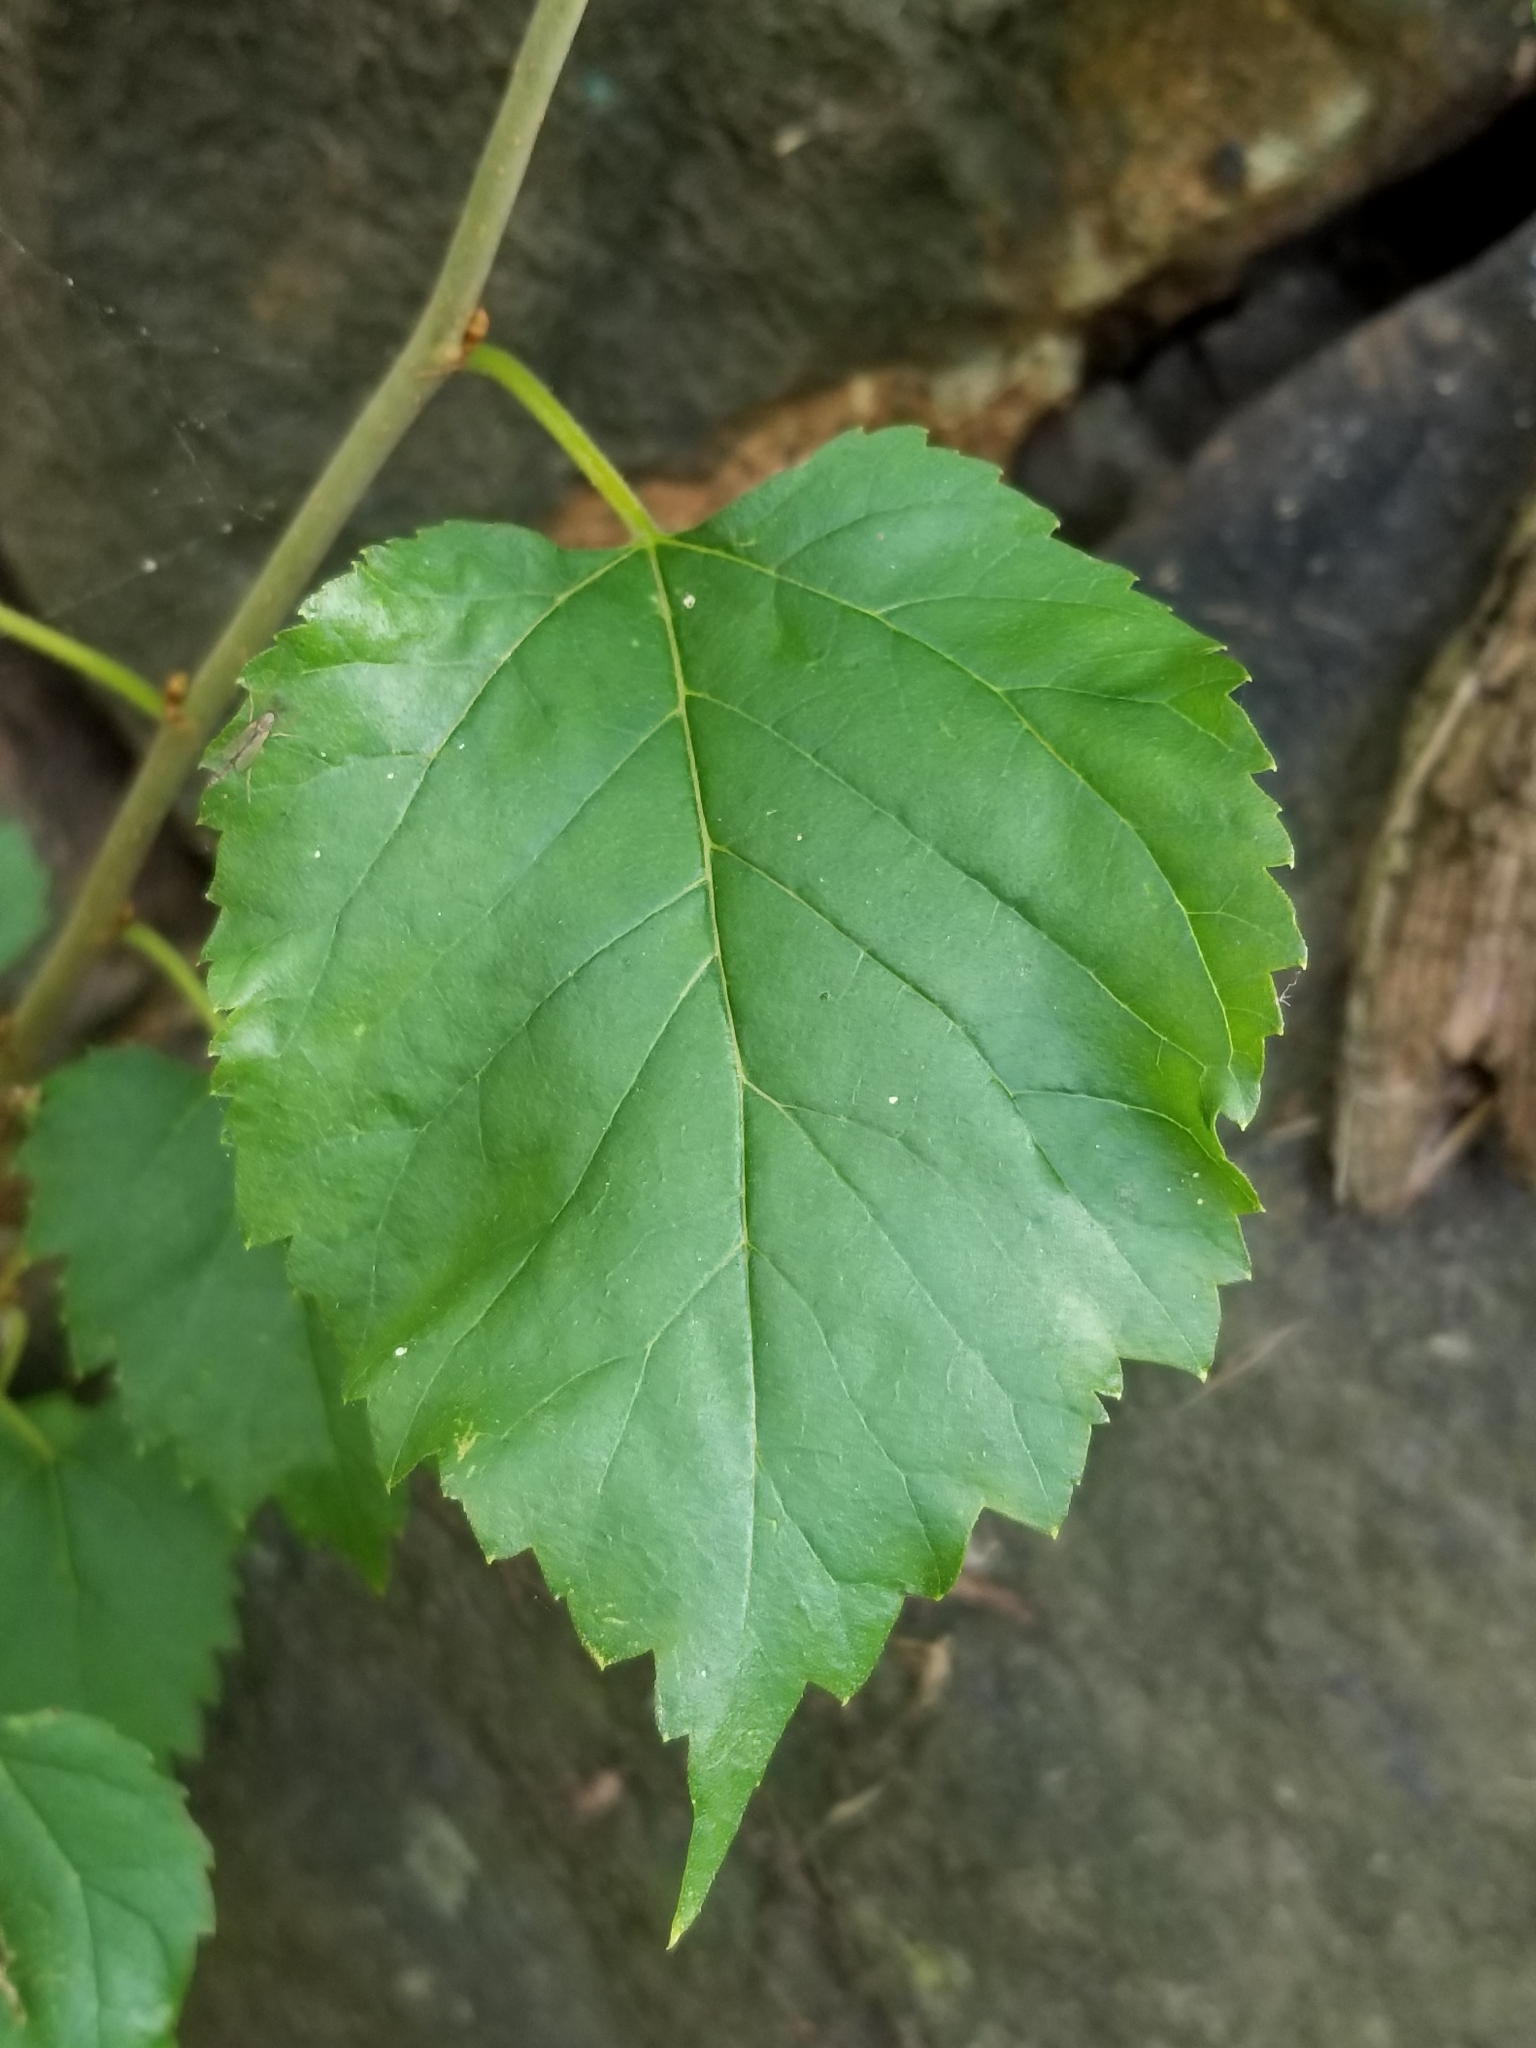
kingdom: Plantae
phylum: Tracheophyta
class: Magnoliopsida
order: Rosales
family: Moraceae
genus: Morus
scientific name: Morus alba
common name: White mulberry
